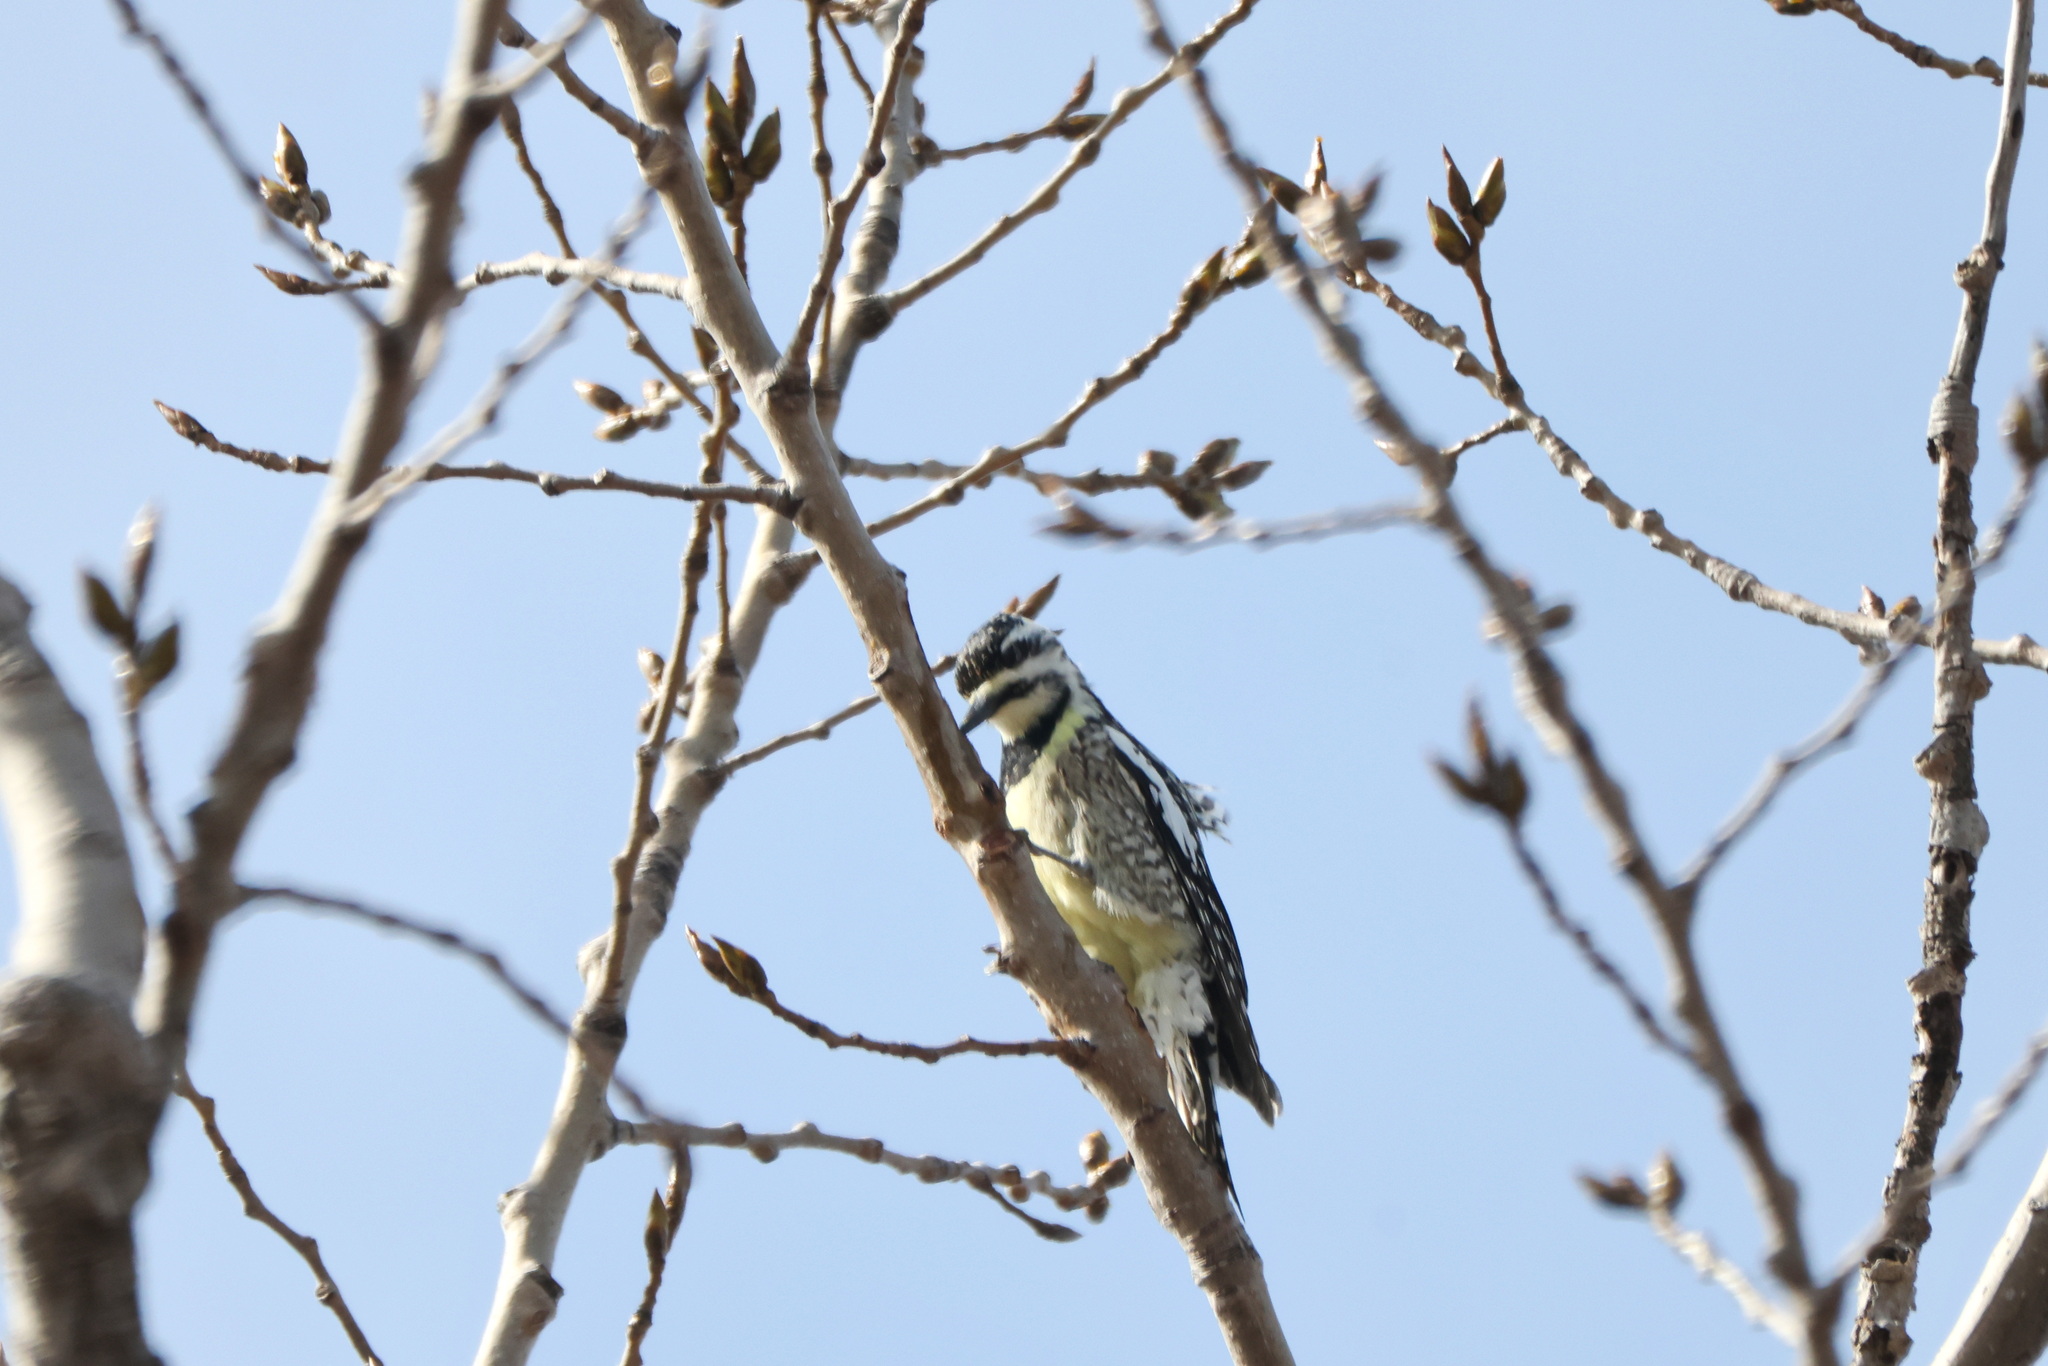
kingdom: Animalia
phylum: Chordata
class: Aves
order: Piciformes
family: Picidae
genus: Sphyrapicus
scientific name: Sphyrapicus varius
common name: Yellow-bellied sapsucker
